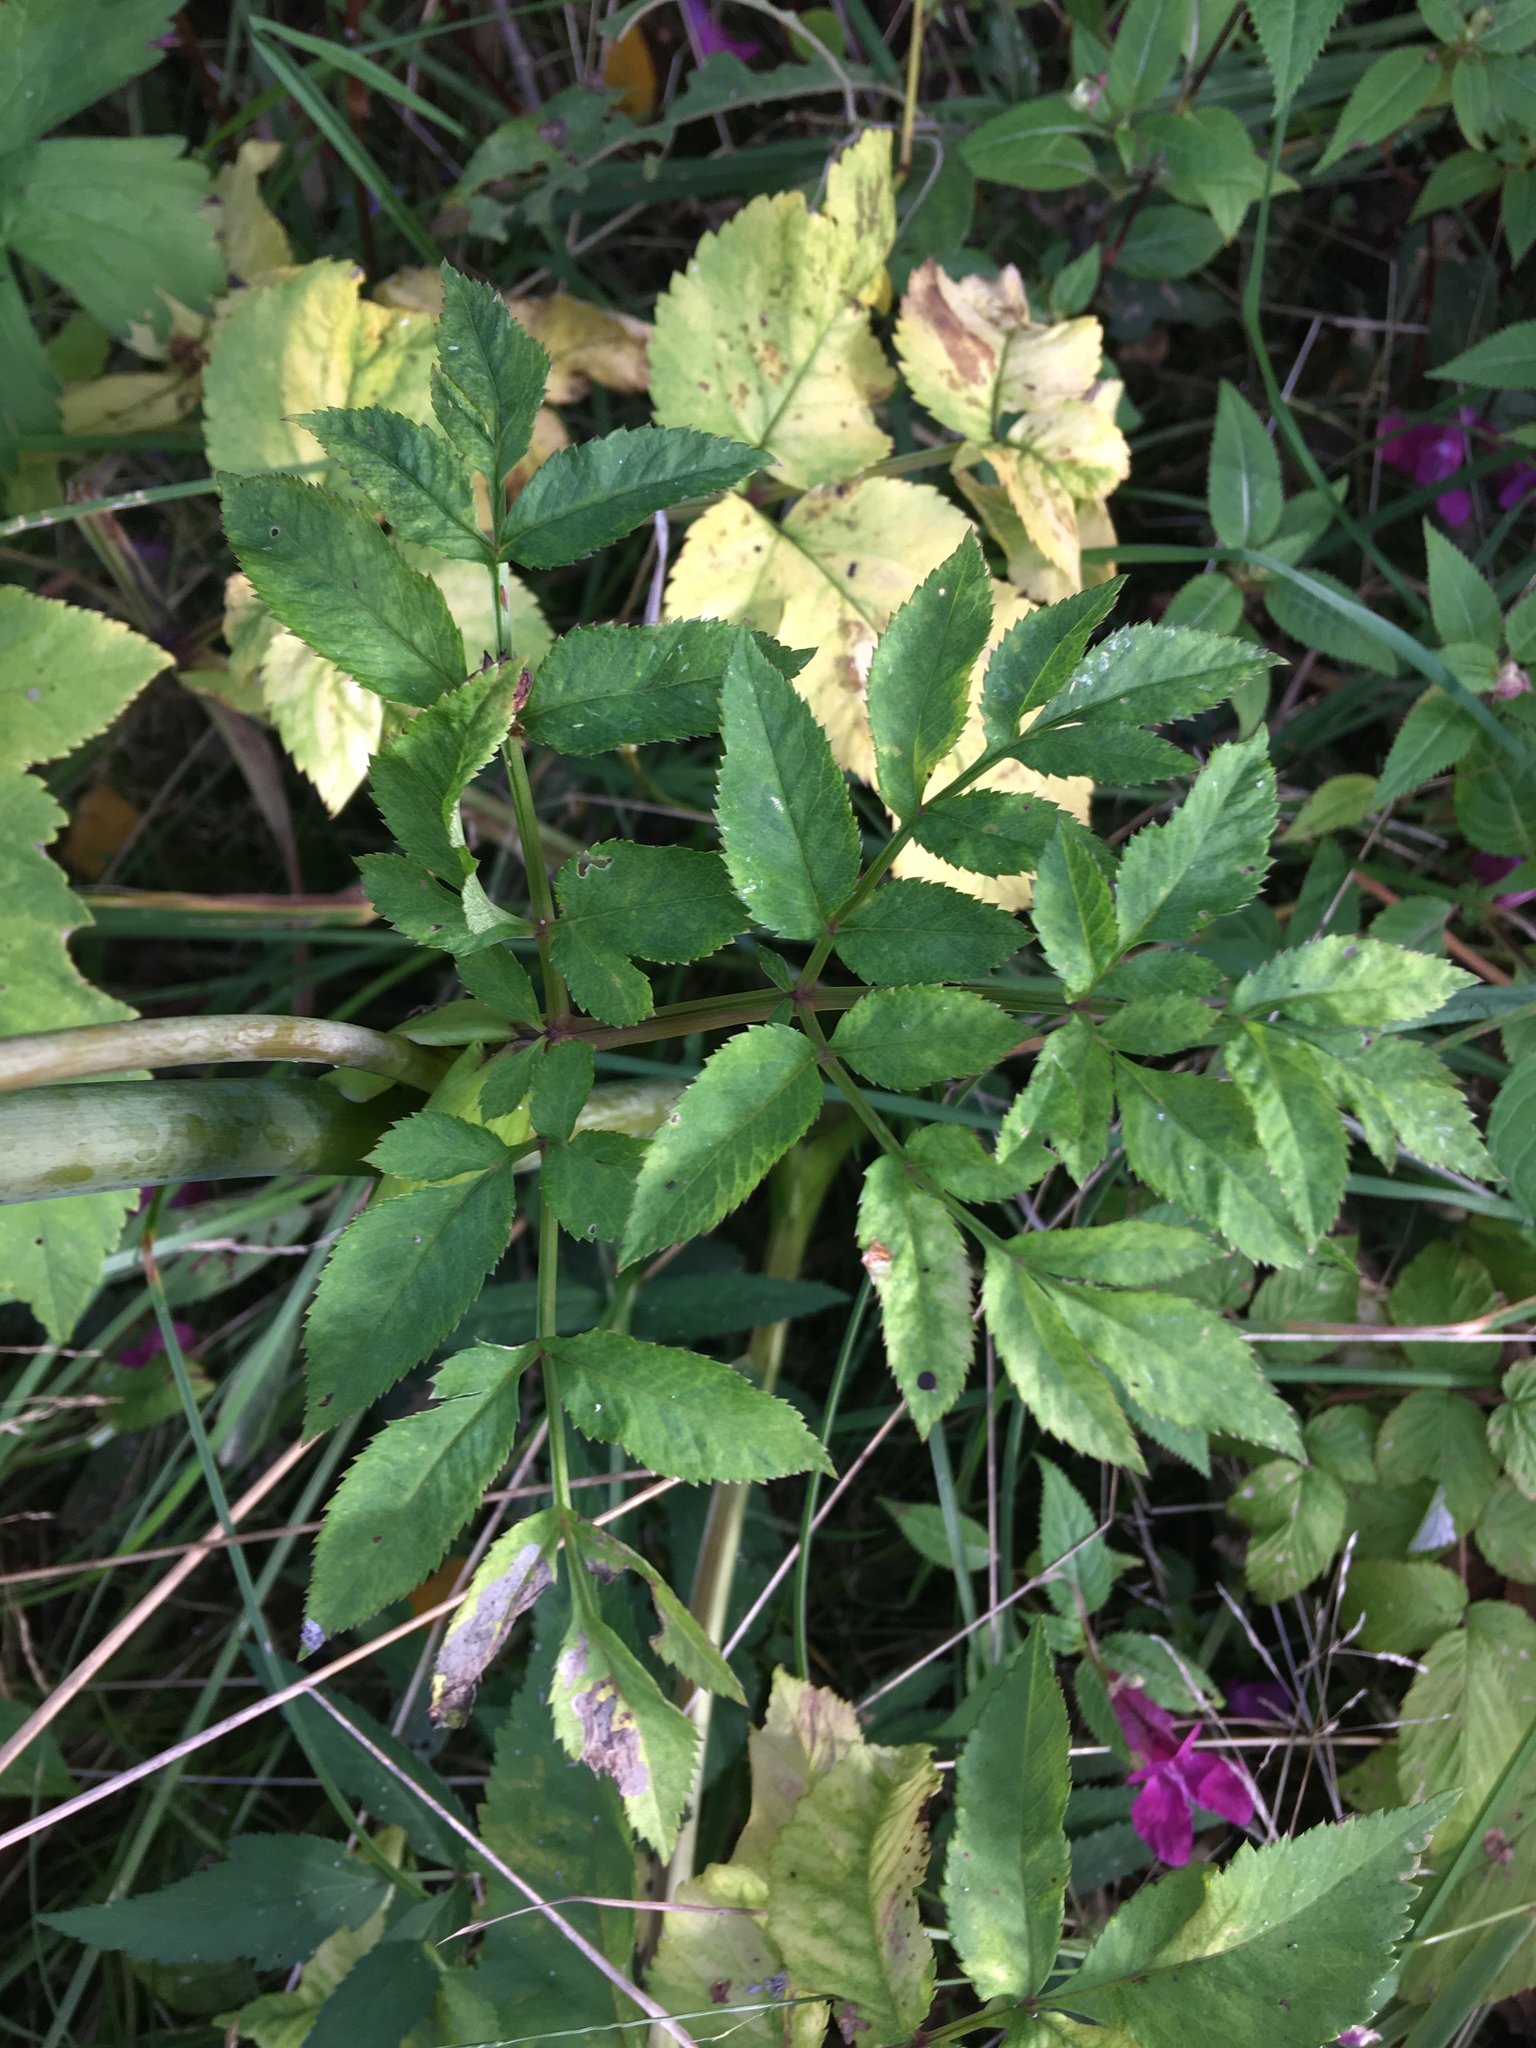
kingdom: Plantae
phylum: Tracheophyta
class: Magnoliopsida
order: Apiales
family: Apiaceae
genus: Angelica
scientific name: Angelica sylvestris
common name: Wild angelica
